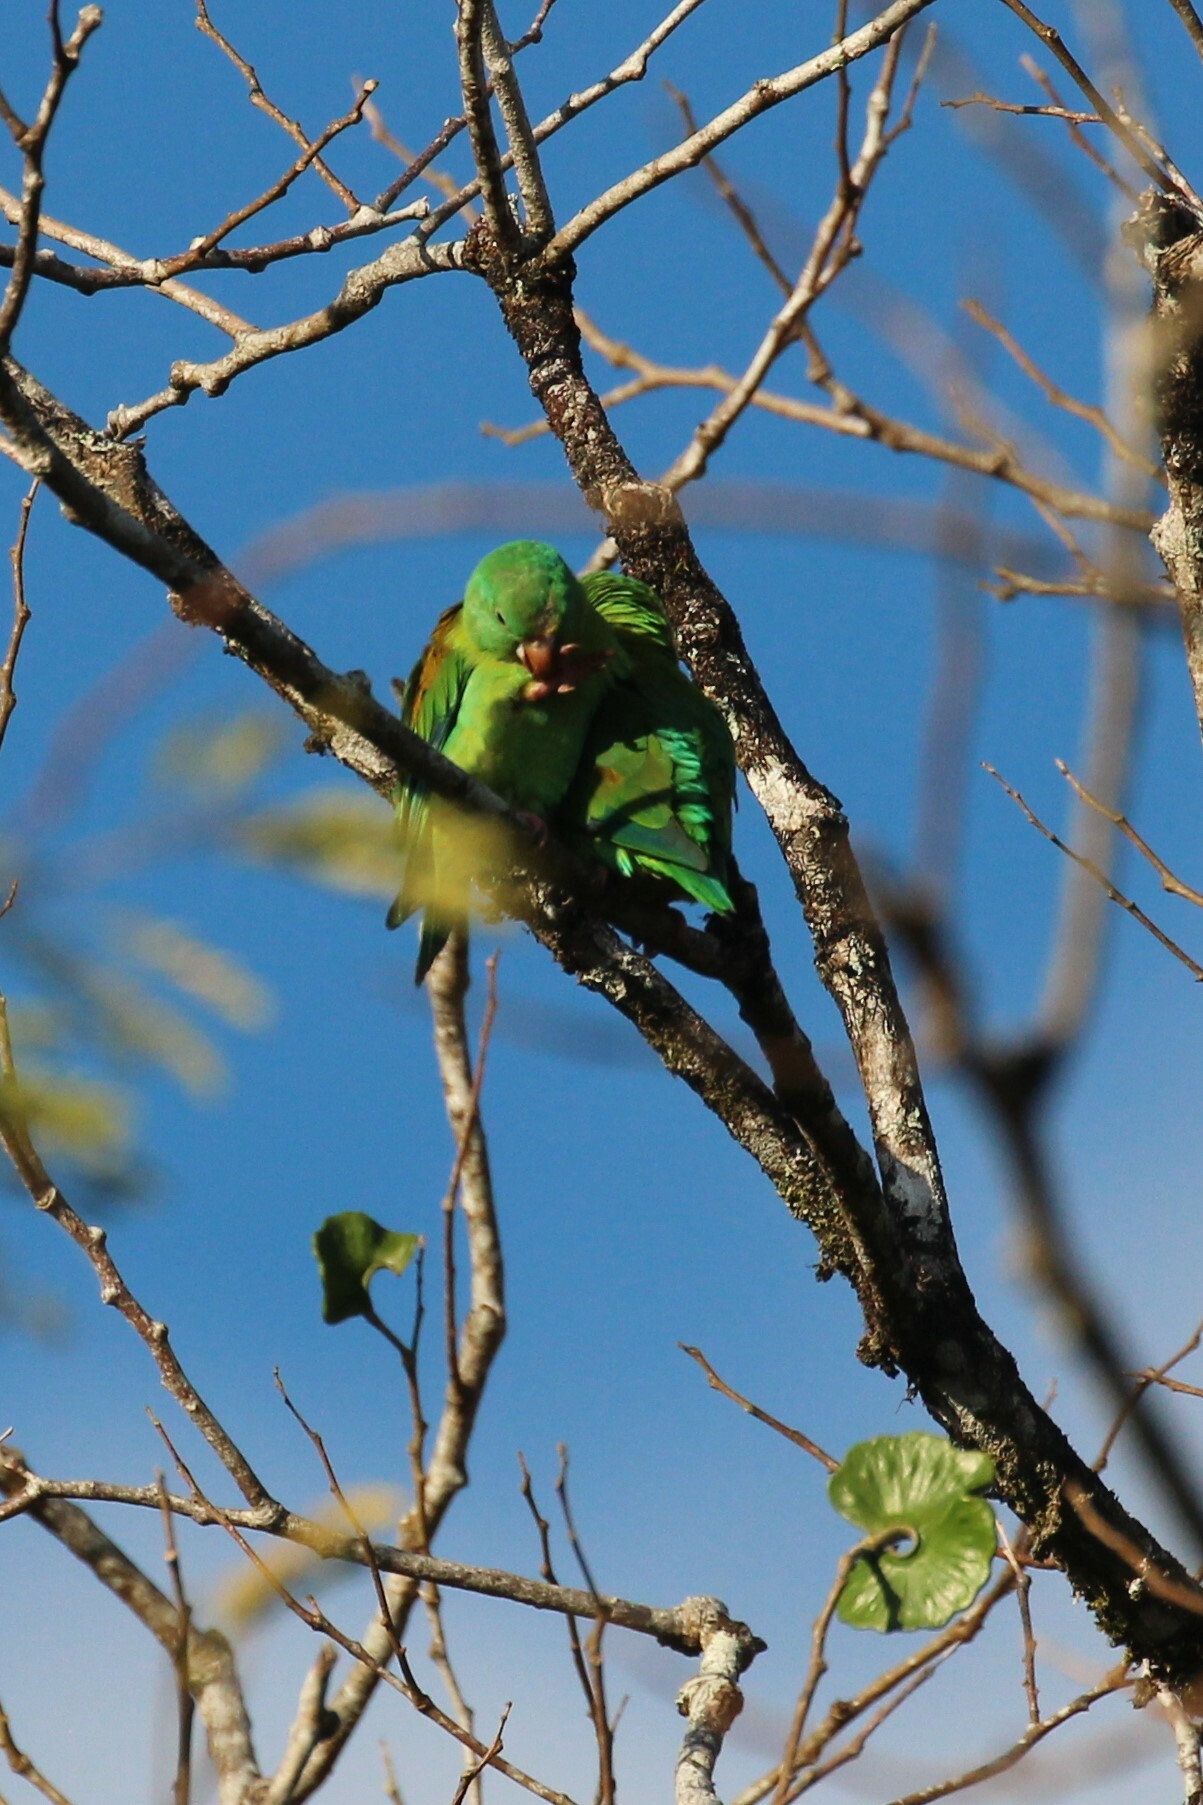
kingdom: Animalia
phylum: Chordata
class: Aves
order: Psittaciformes
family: Psittacidae
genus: Brotogeris
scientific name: Brotogeris jugularis
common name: Orange-chinned parakeet
